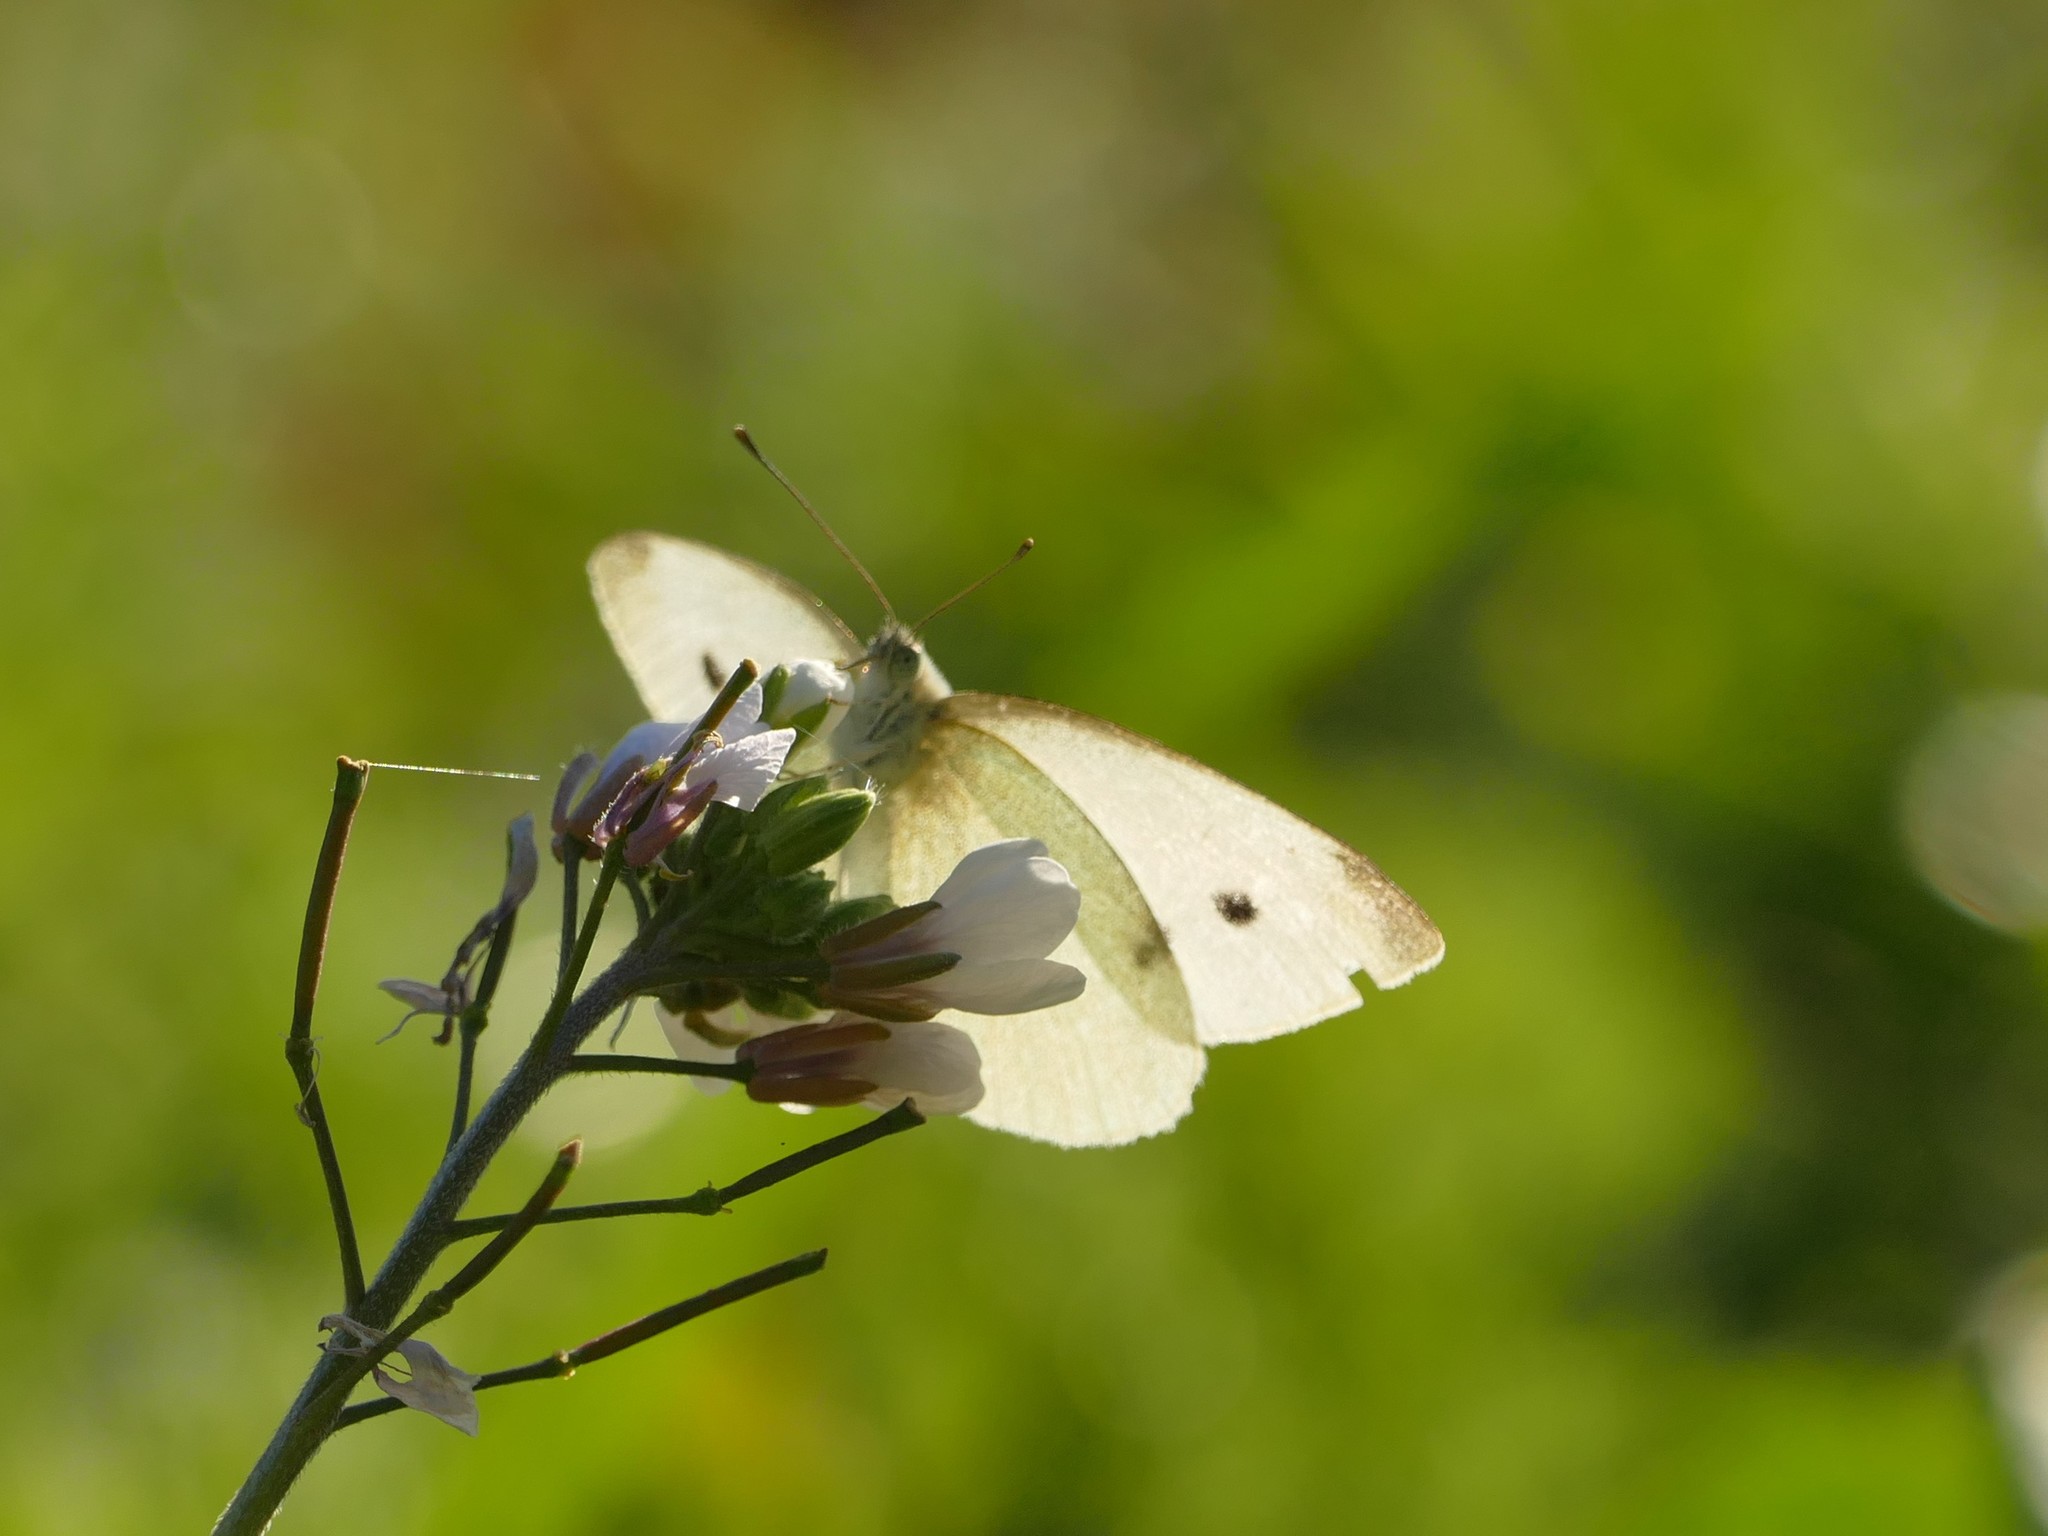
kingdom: Animalia
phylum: Arthropoda
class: Insecta
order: Lepidoptera
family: Pieridae
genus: Pieris
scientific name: Pieris rapae
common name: Small white
